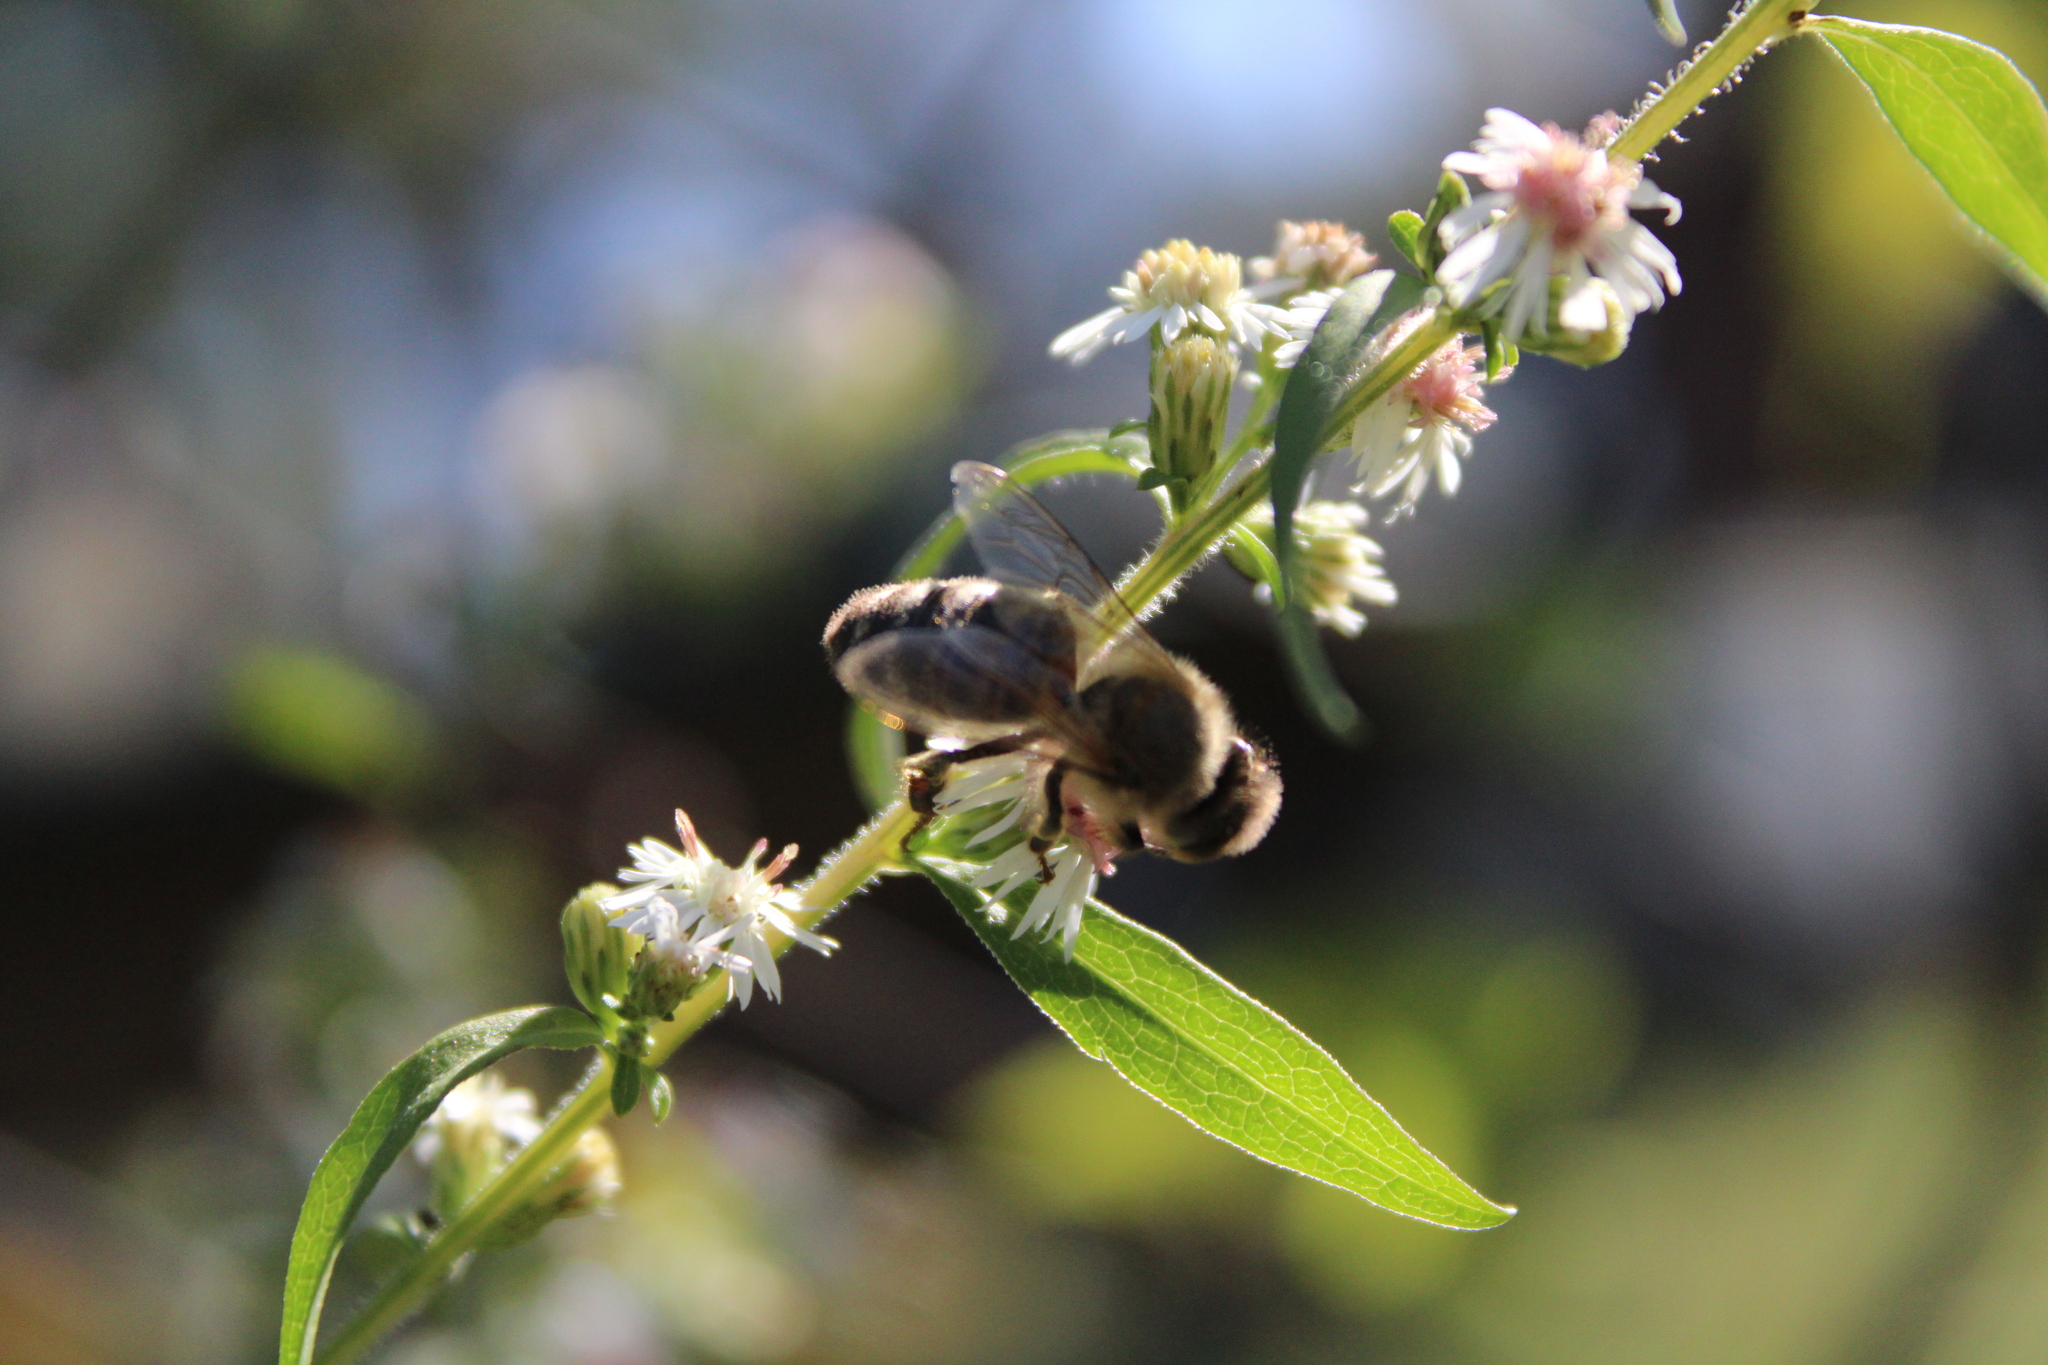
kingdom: Animalia
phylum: Arthropoda
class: Insecta
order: Hymenoptera
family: Apidae
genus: Apis
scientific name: Apis mellifera
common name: Honey bee
